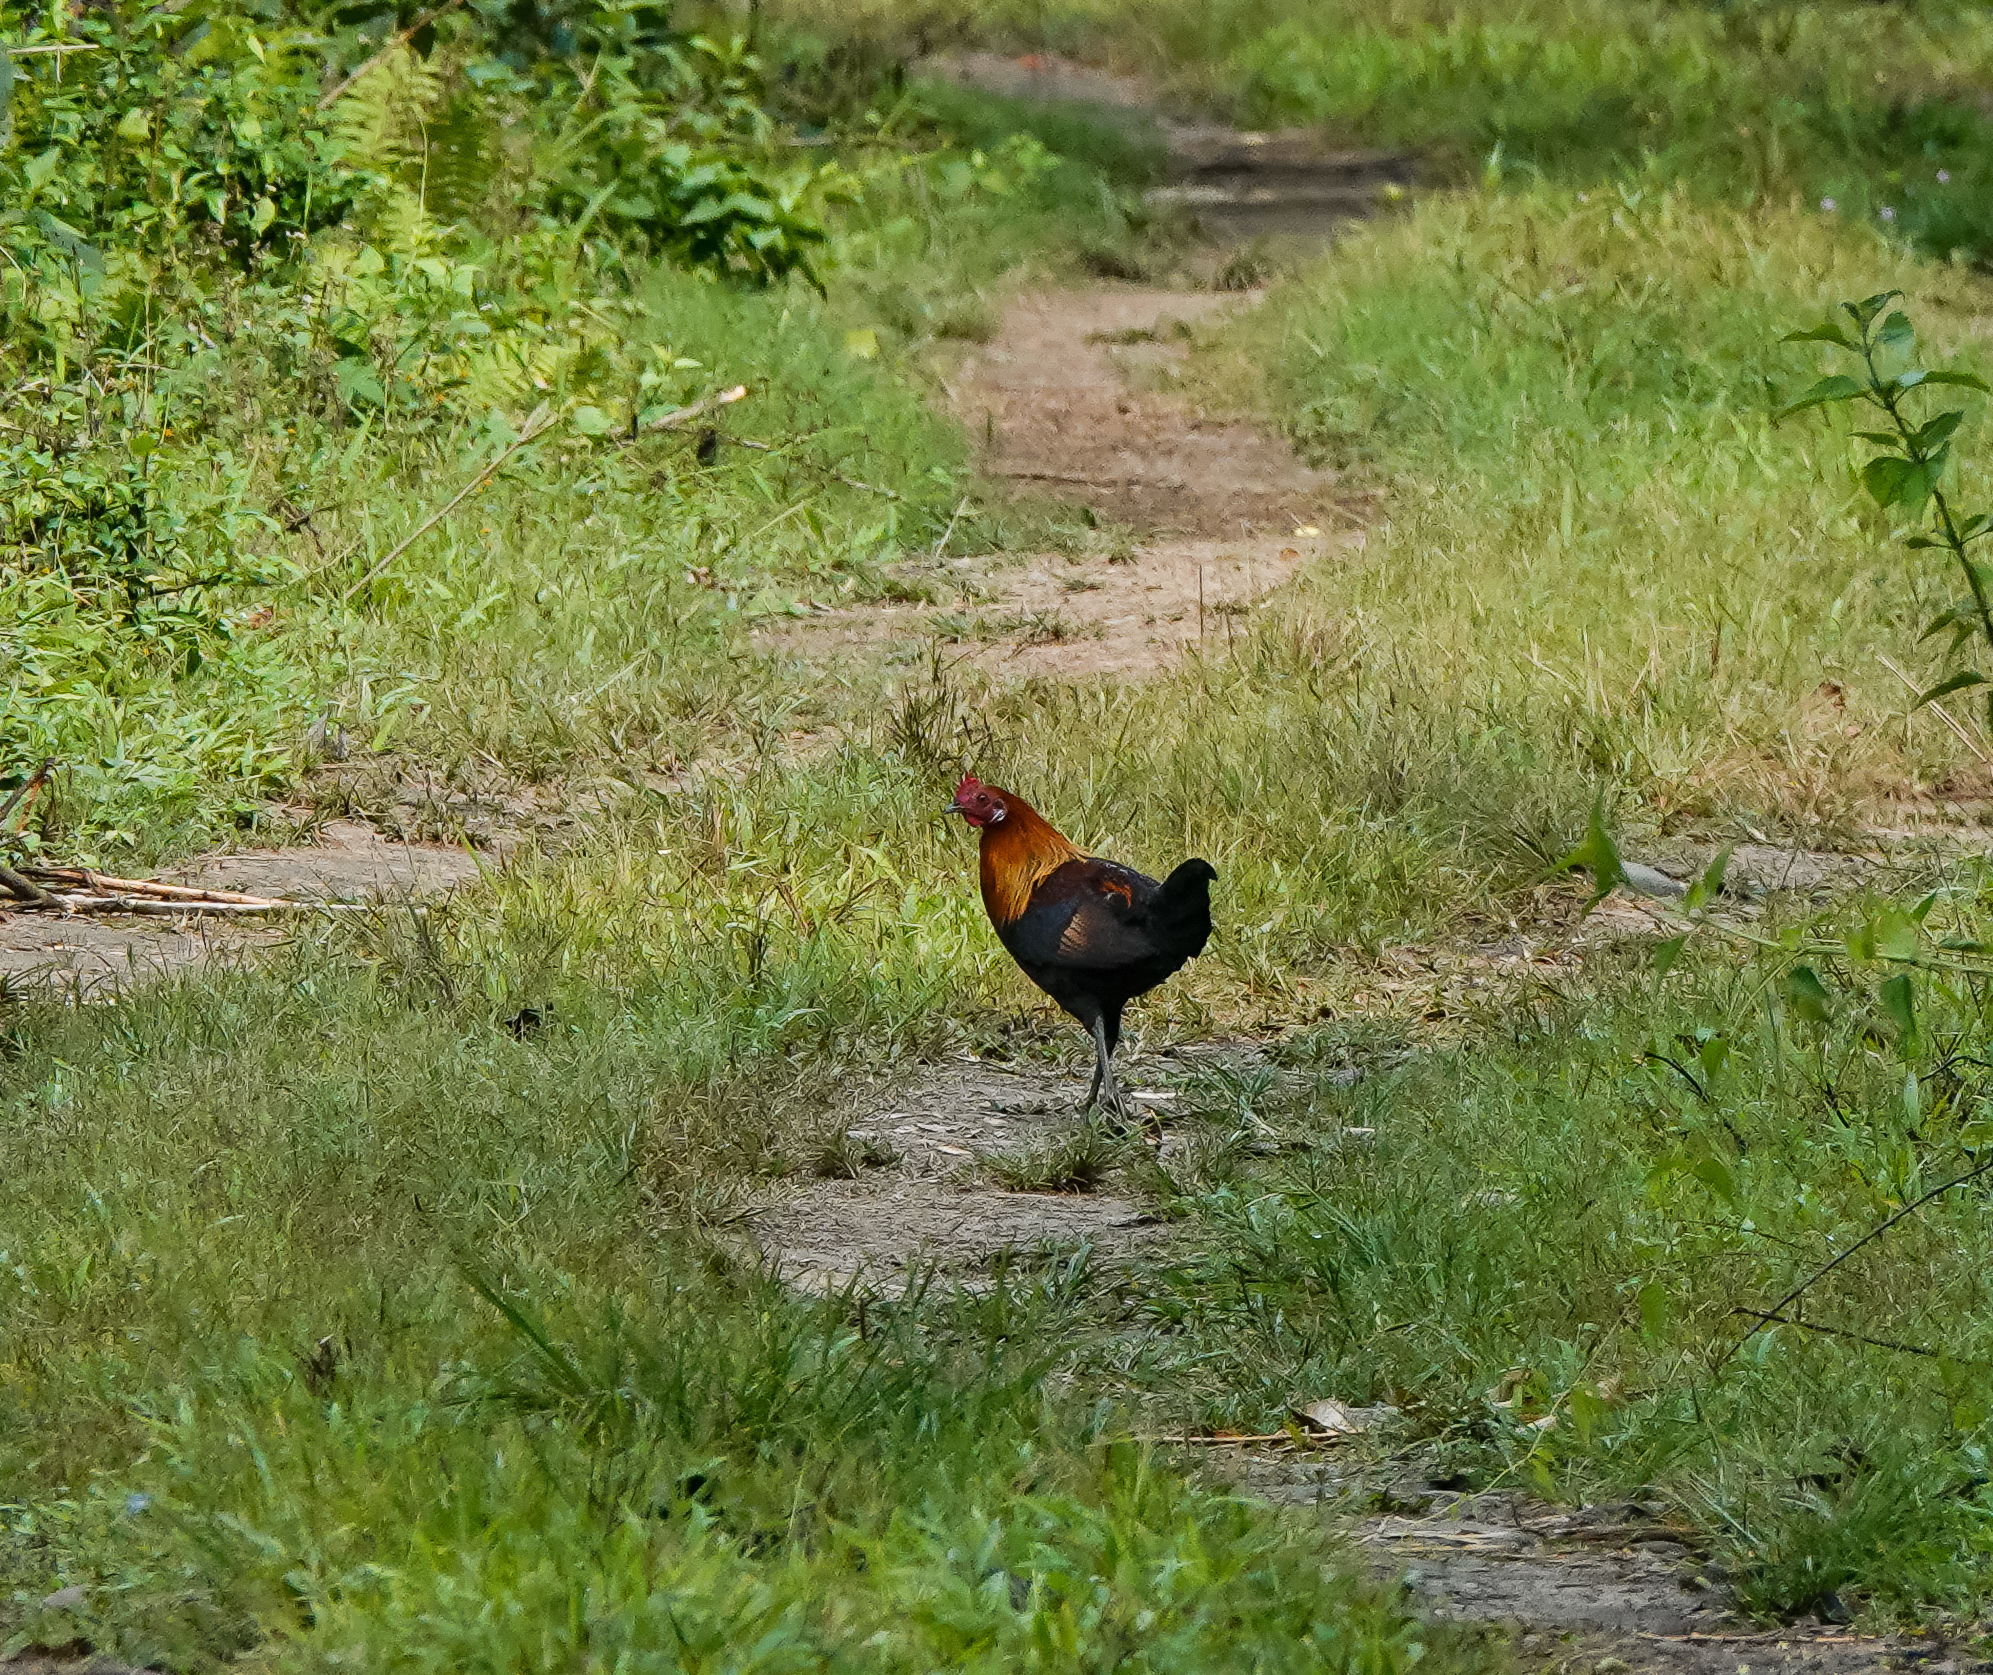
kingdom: Animalia
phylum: Chordata
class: Aves
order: Galliformes
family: Phasianidae
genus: Gallus
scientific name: Gallus gallus
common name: Red junglefowl
